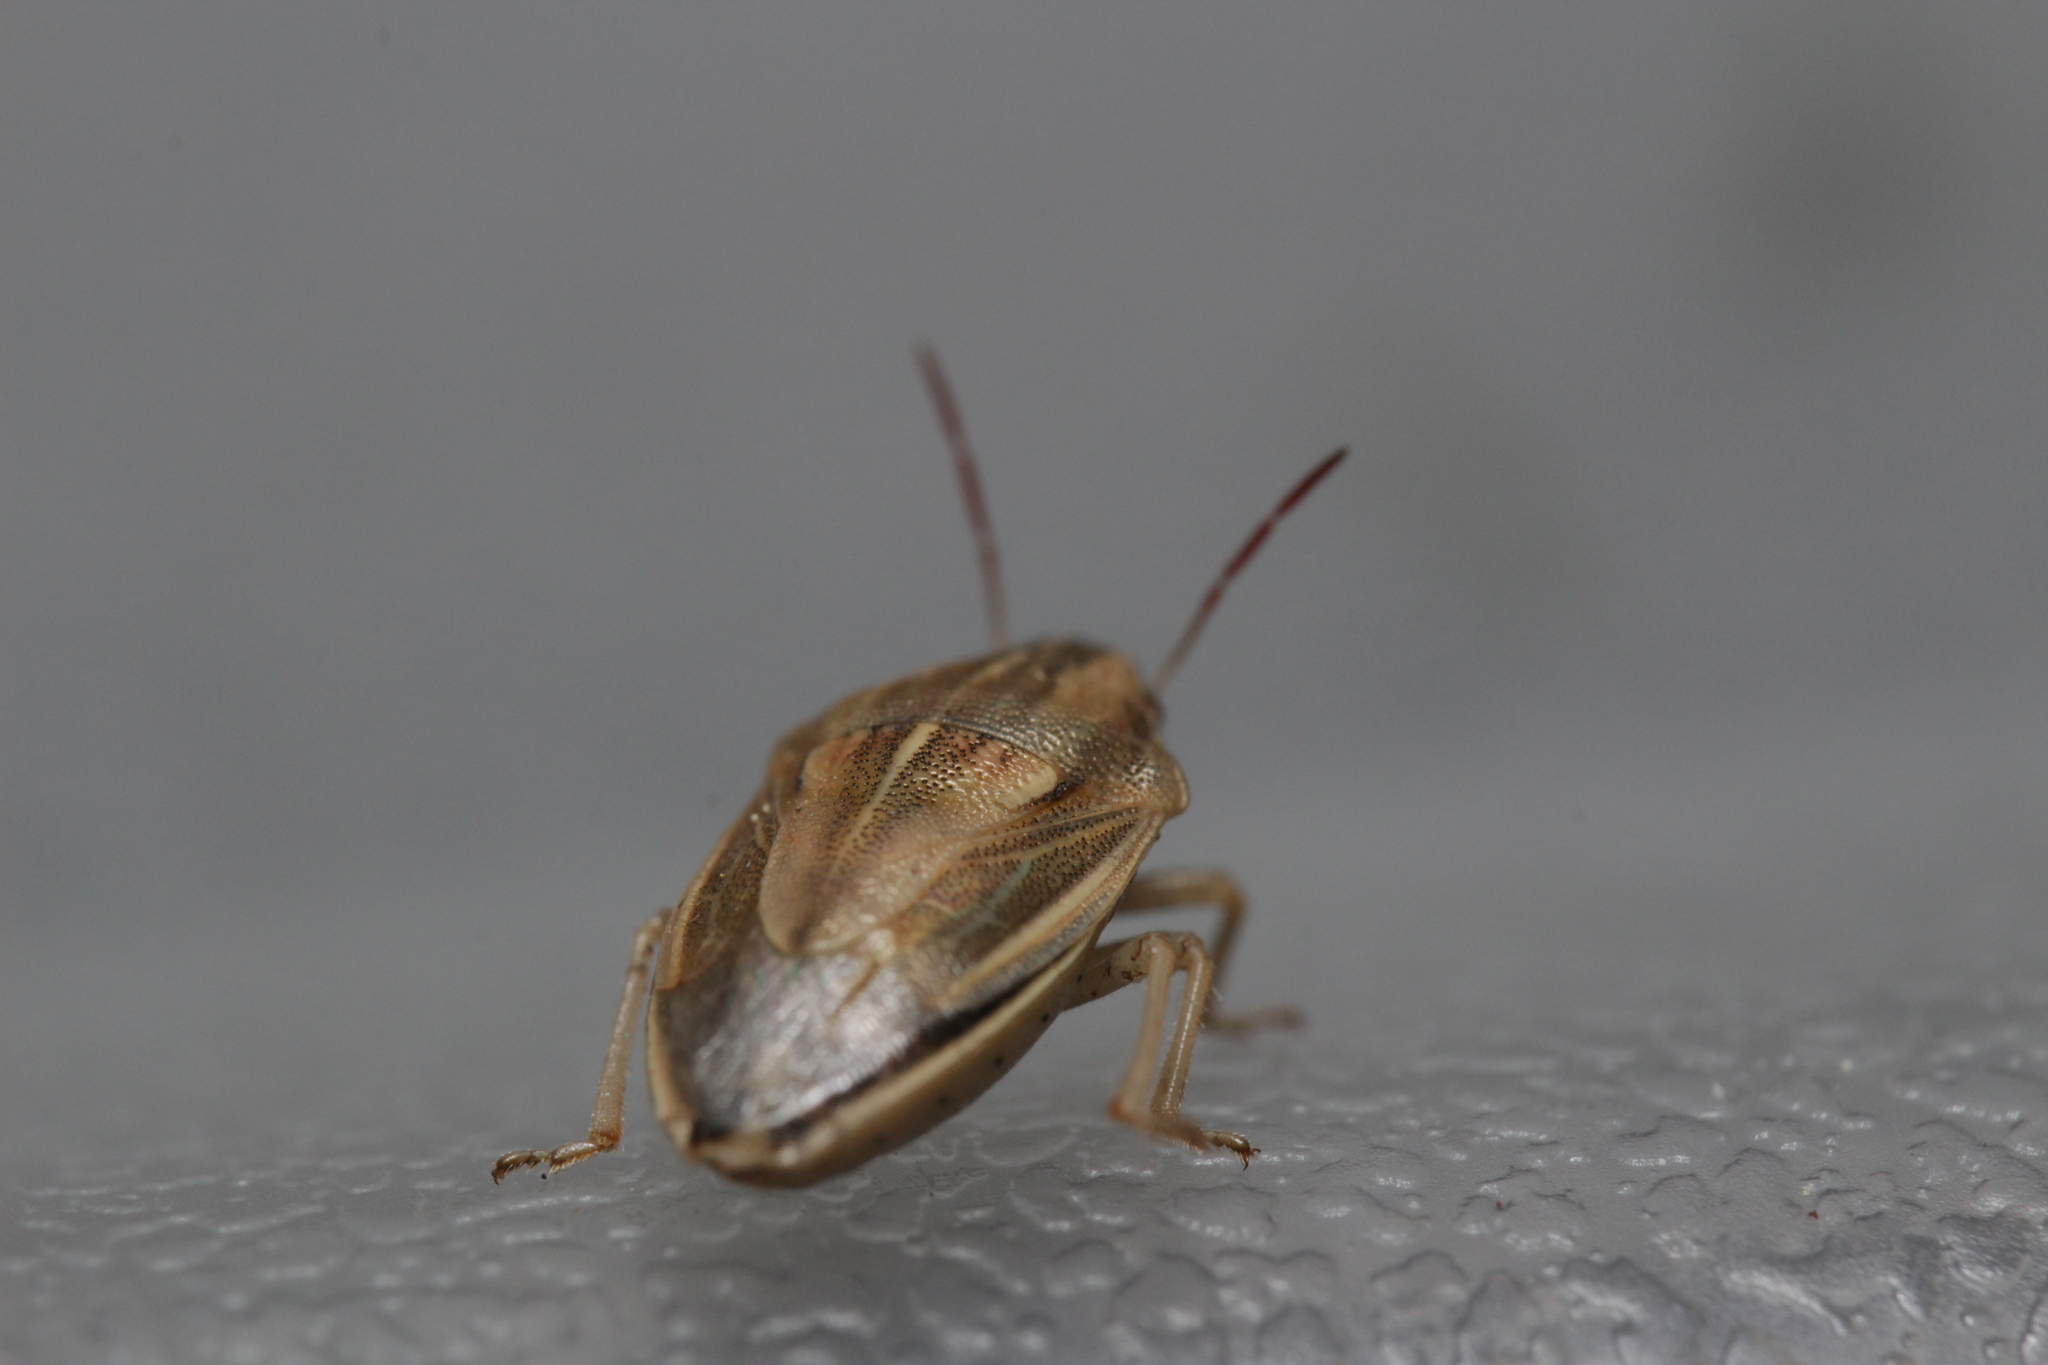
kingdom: Animalia
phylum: Arthropoda
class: Insecta
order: Hemiptera
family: Pentatomidae
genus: Aelia
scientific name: Aelia acuminata
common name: Bishop's mitre
